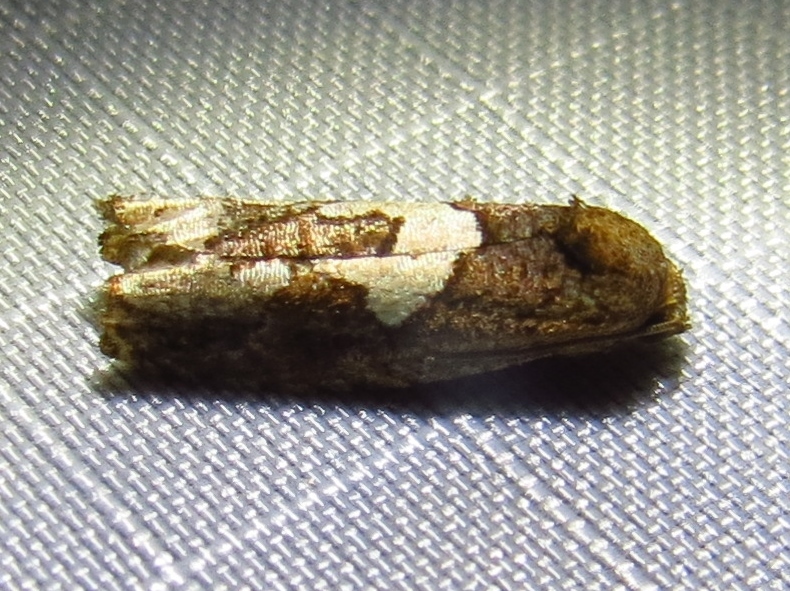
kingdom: Animalia
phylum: Arthropoda
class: Insecta
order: Lepidoptera
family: Tortricidae
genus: Epiblema
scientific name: Epiblema otiosana
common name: Bidens borer moth
